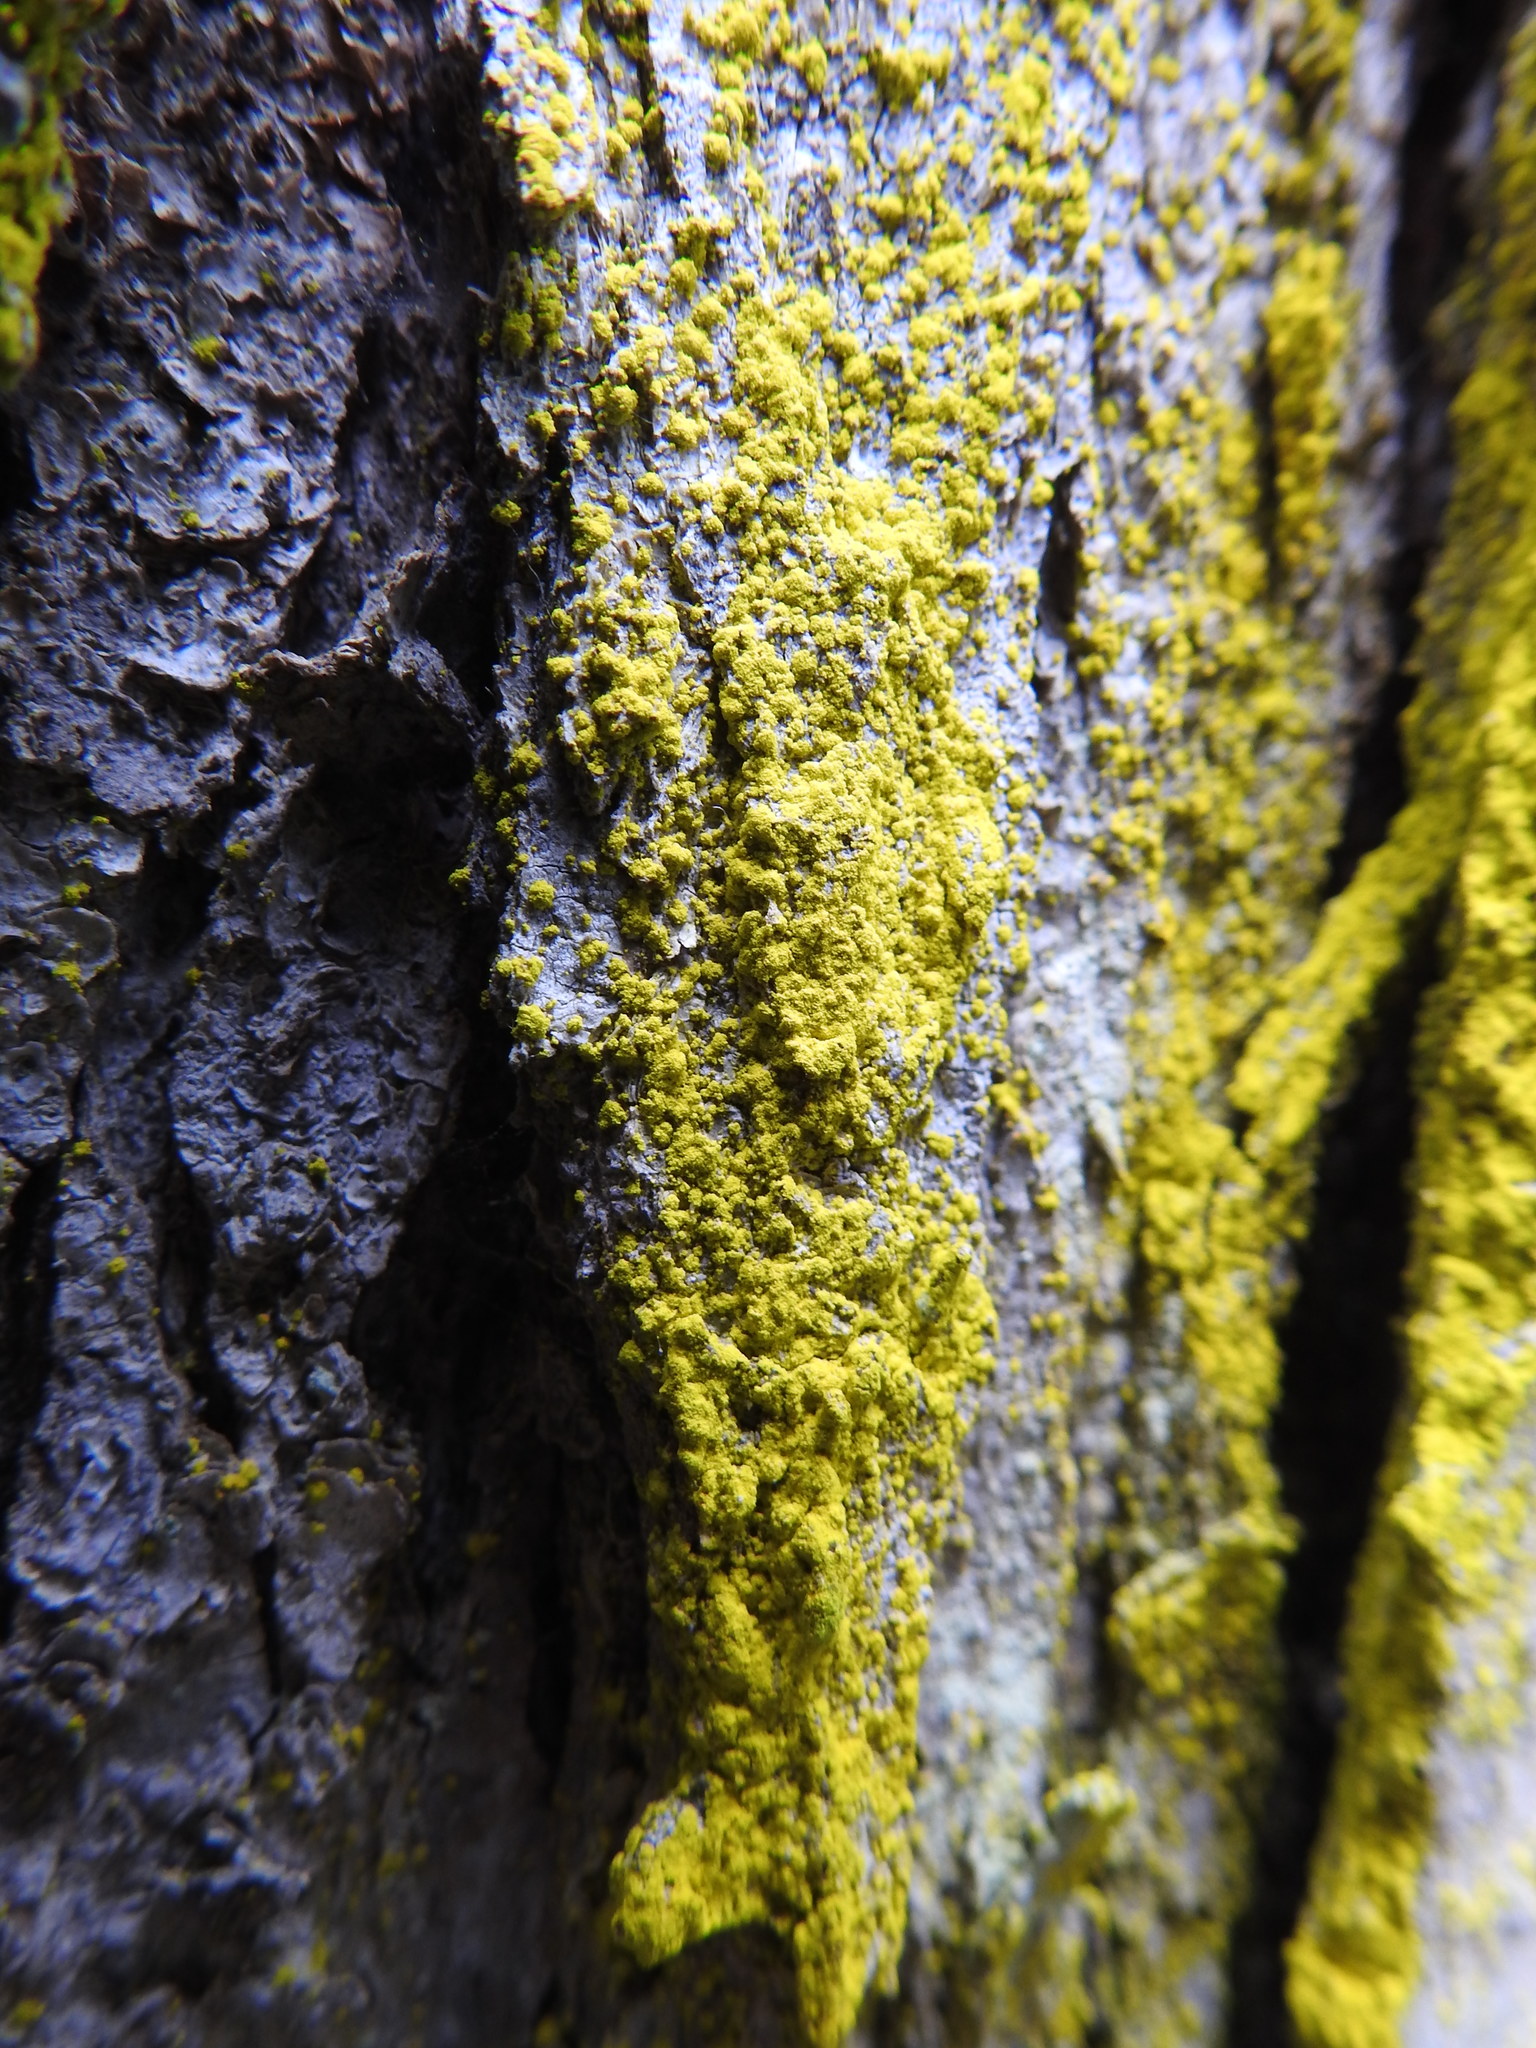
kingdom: Fungi
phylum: Ascomycota
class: Arthoniomycetes
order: Arthoniales
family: Chrysotrichaceae
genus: Chrysothrix
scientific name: Chrysothrix candelaris
